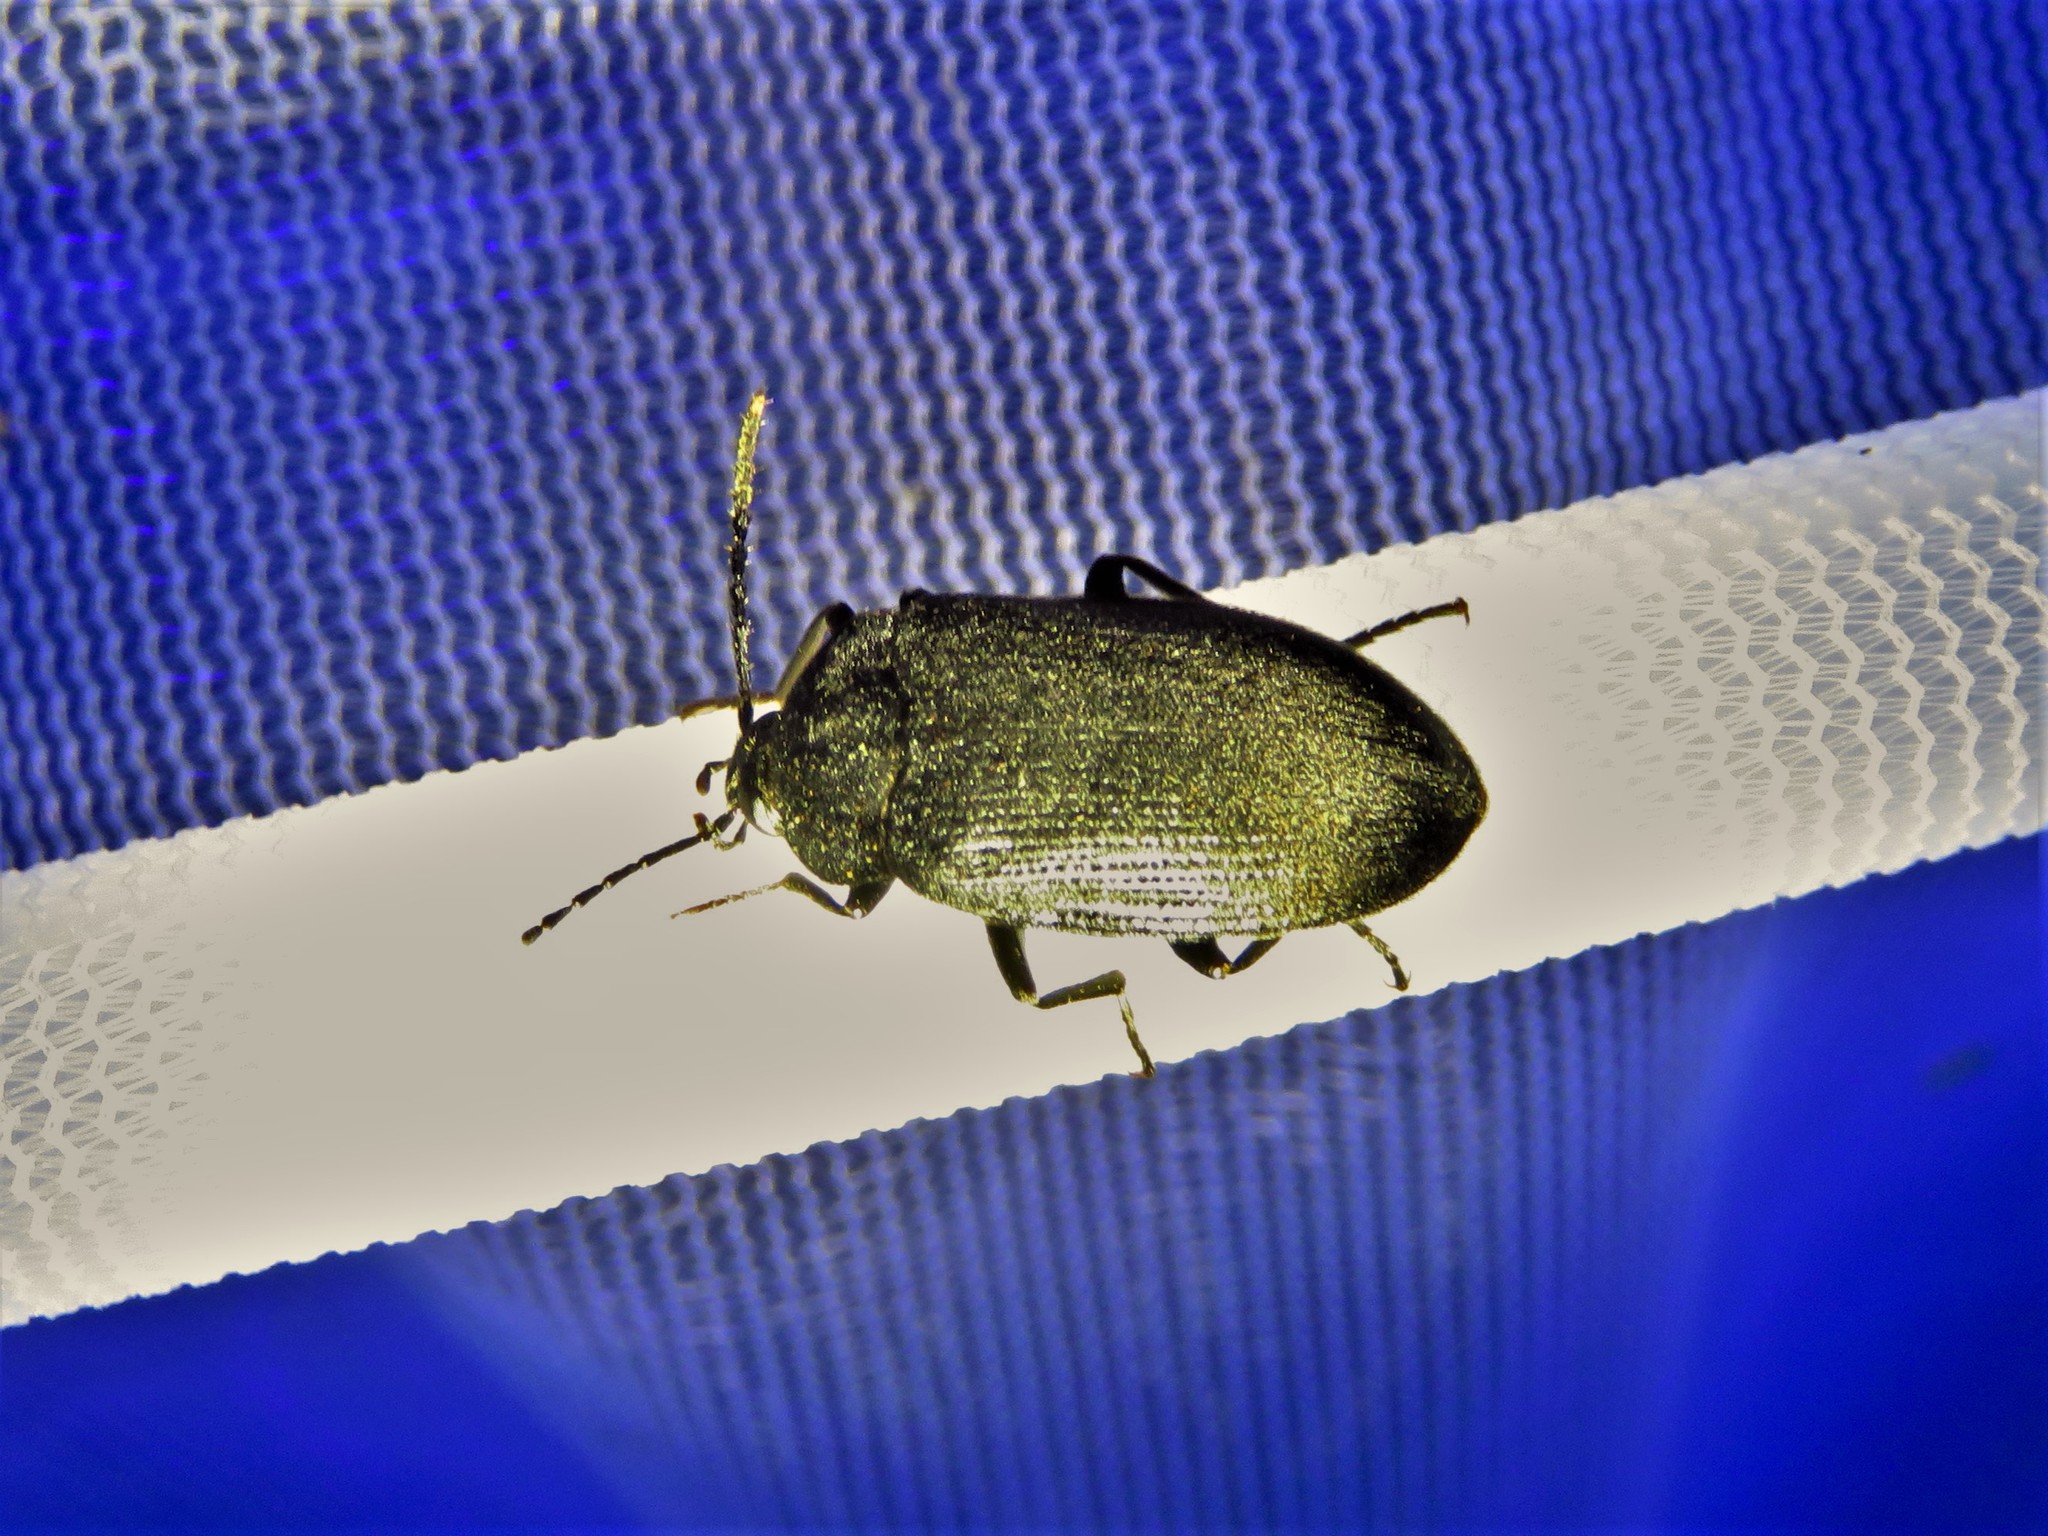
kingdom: Animalia
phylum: Arthropoda
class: Insecta
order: Coleoptera
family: Tetratomidae
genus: Penthe
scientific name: Penthe pimelia
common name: Velvety bark beetle
